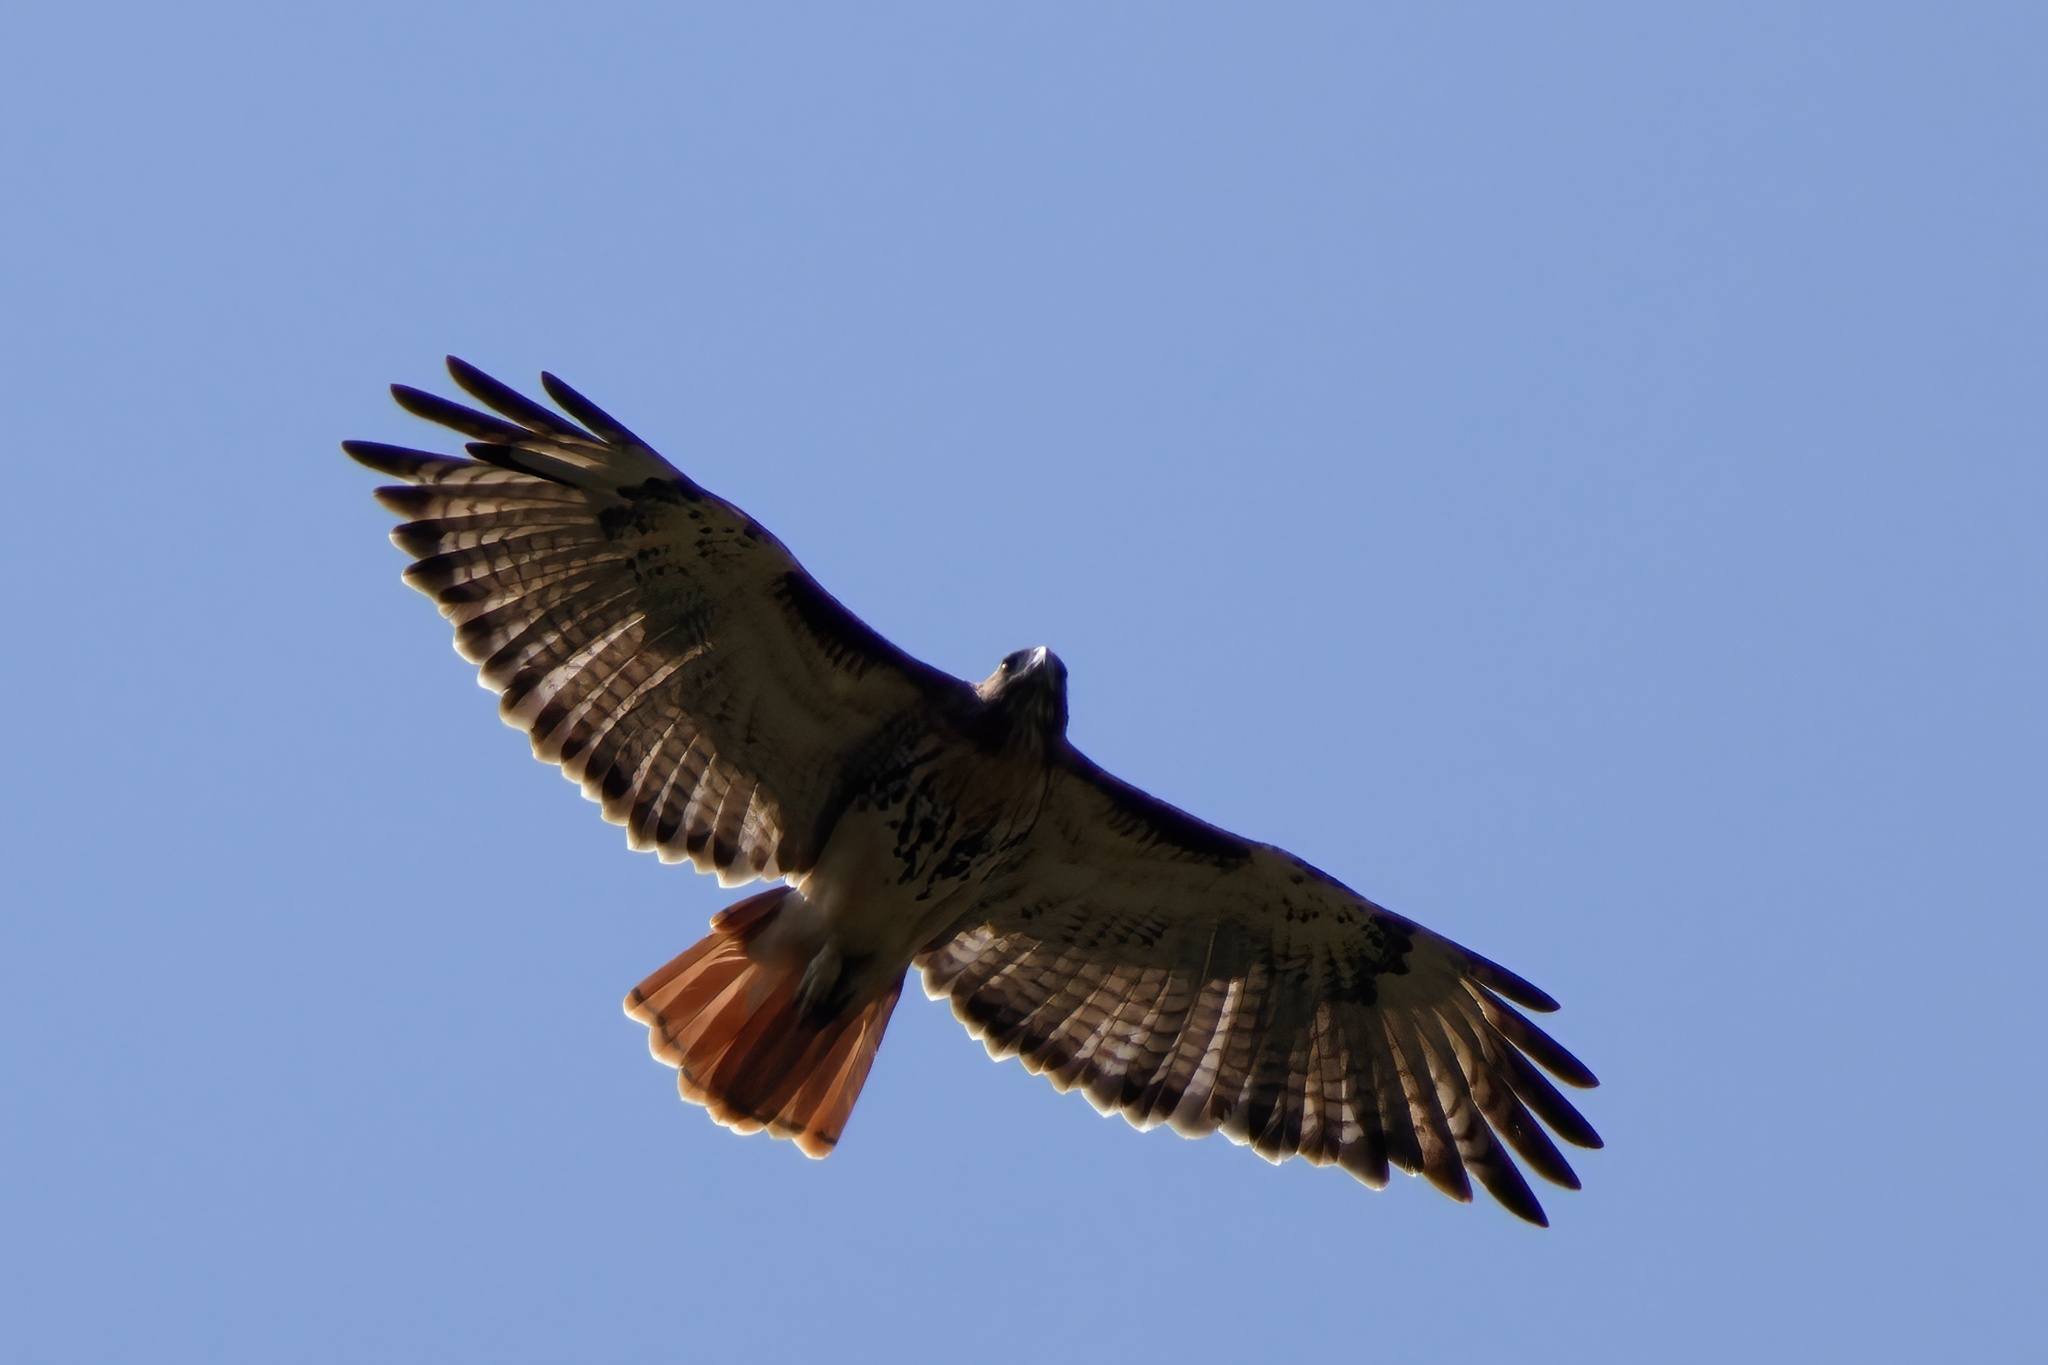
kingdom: Animalia
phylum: Chordata
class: Aves
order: Accipitriformes
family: Accipitridae
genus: Buteo
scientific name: Buteo jamaicensis
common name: Red-tailed hawk
